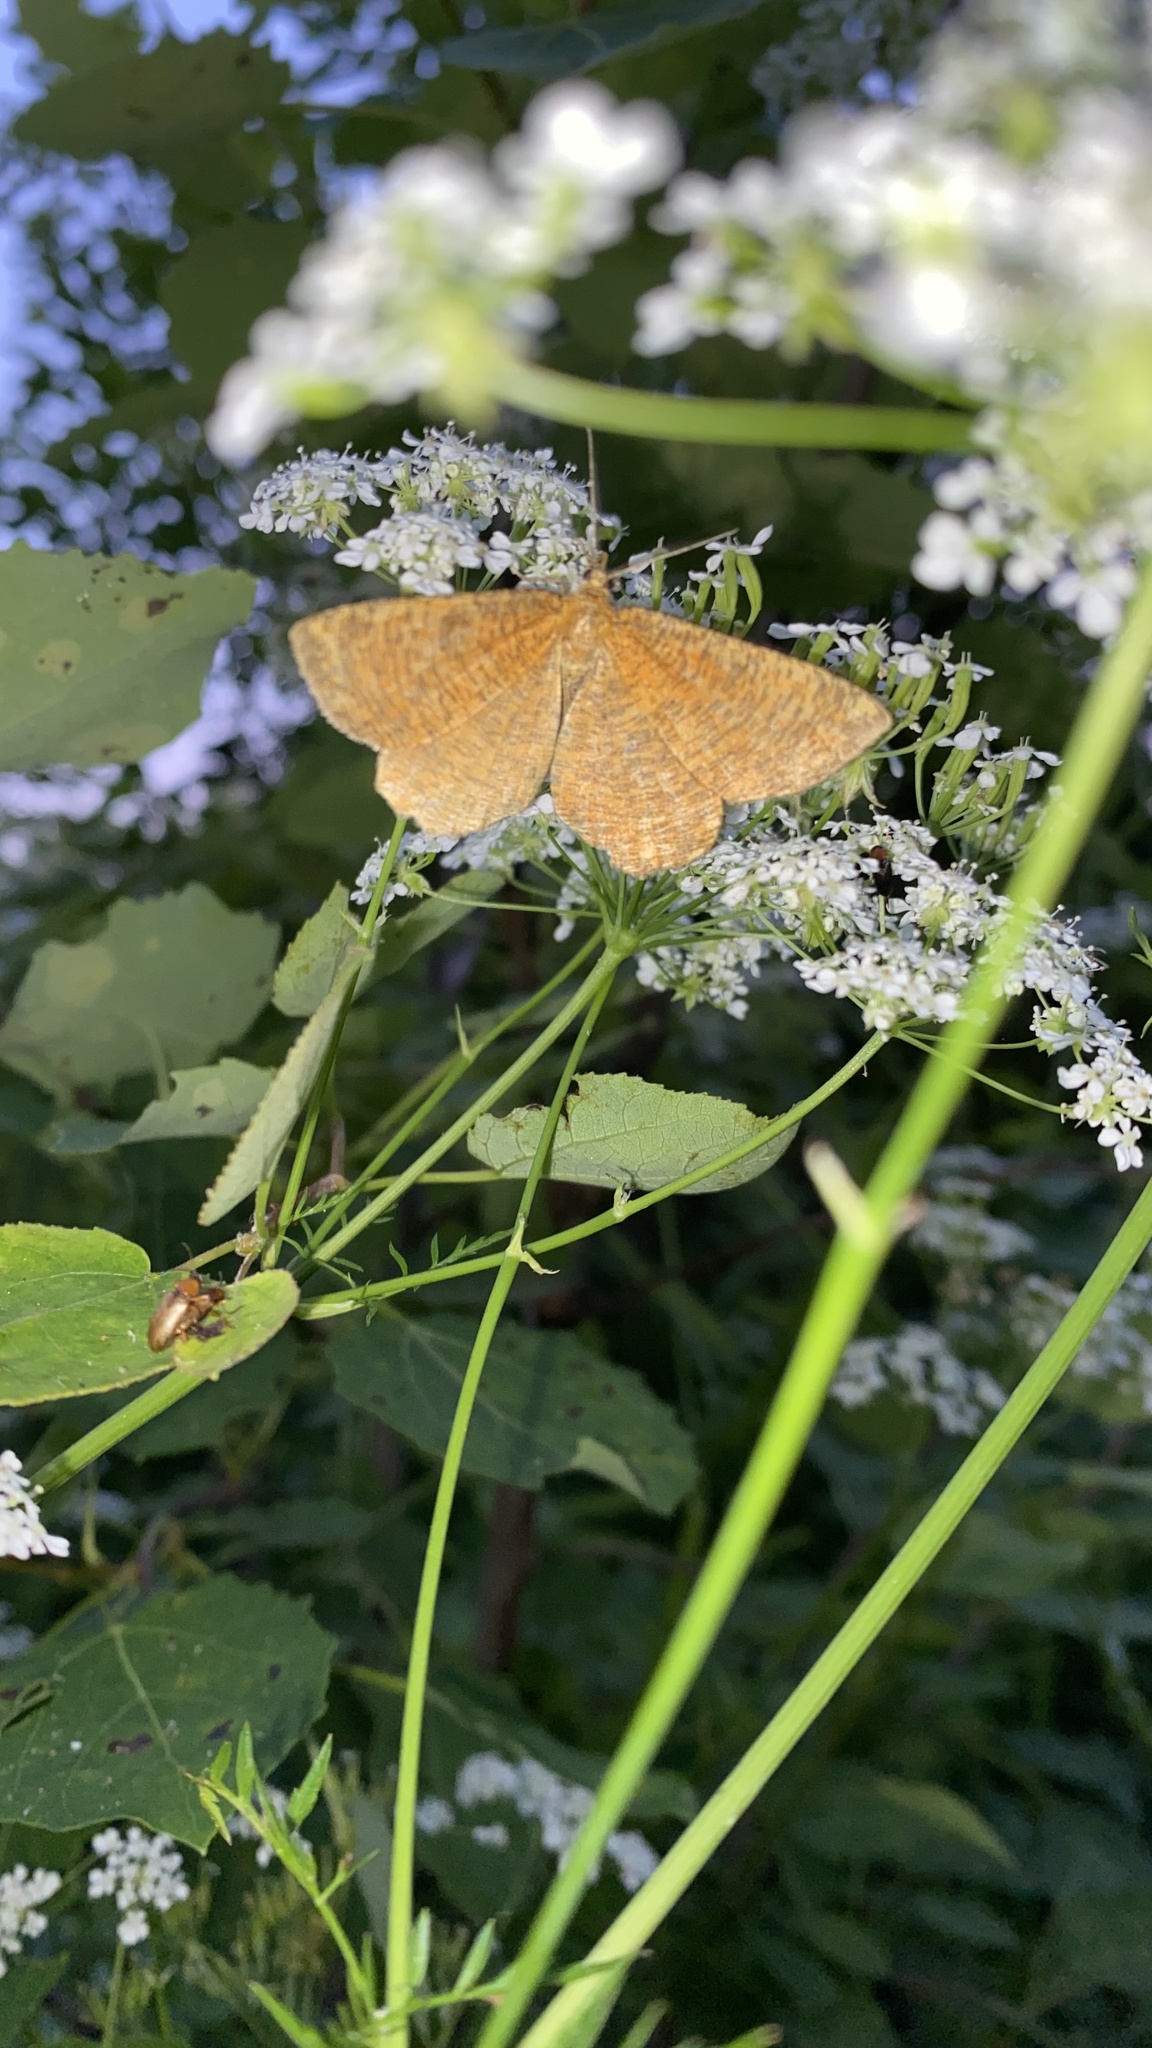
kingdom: Animalia
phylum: Arthropoda
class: Insecta
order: Lepidoptera
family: Geometridae
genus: Angerona
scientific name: Angerona prunaria
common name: Orange moth
